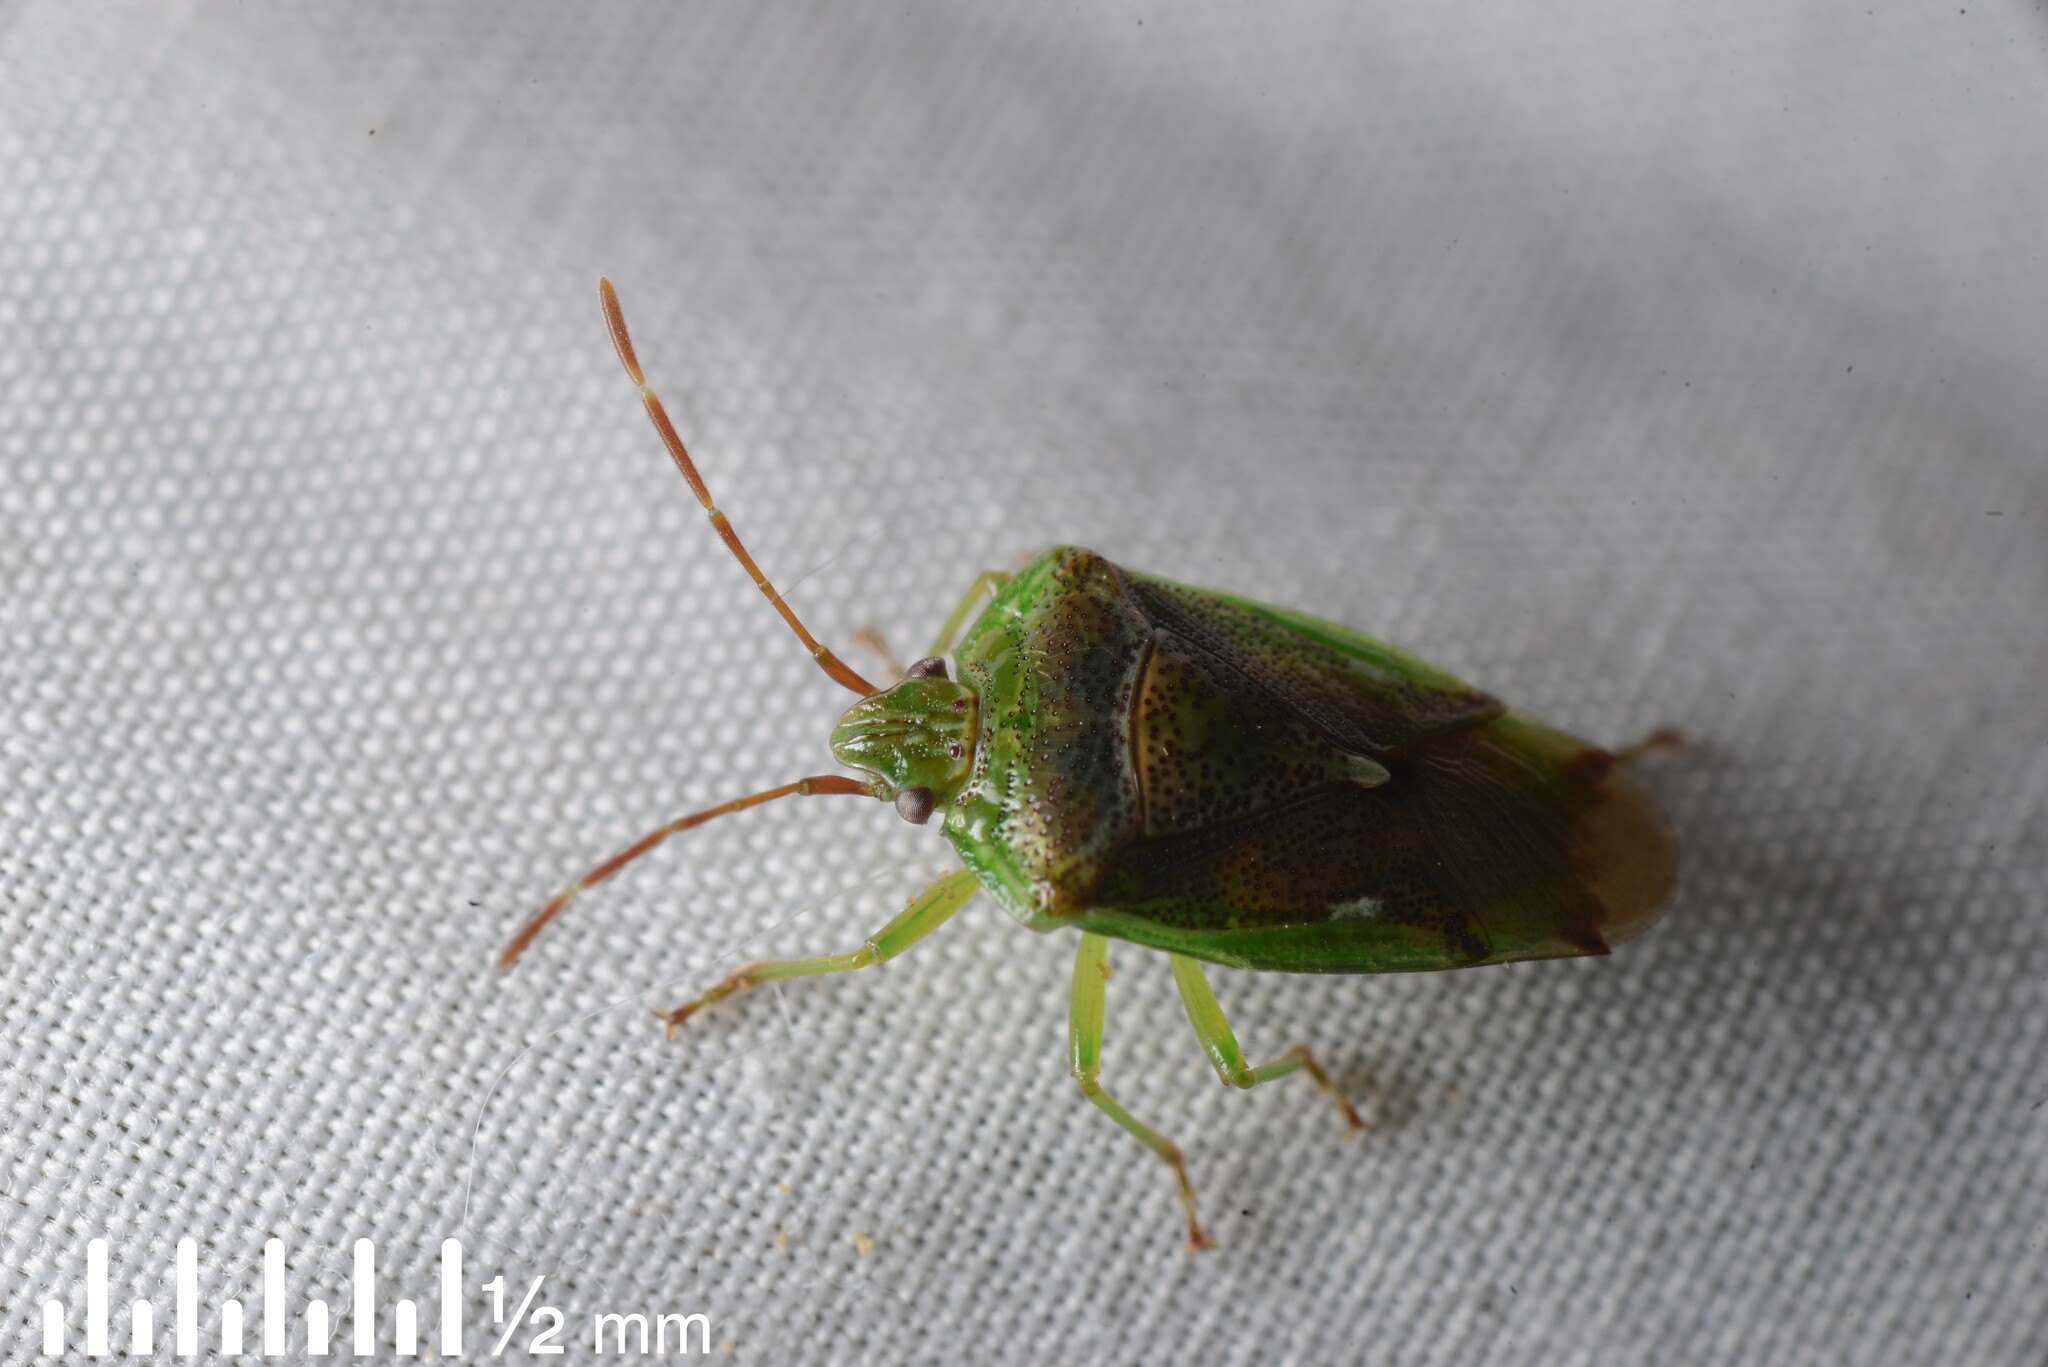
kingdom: Animalia
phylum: Arthropoda
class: Insecta
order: Hemiptera
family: Acanthosomatidae
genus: Oncacontias
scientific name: Oncacontias vittatus
